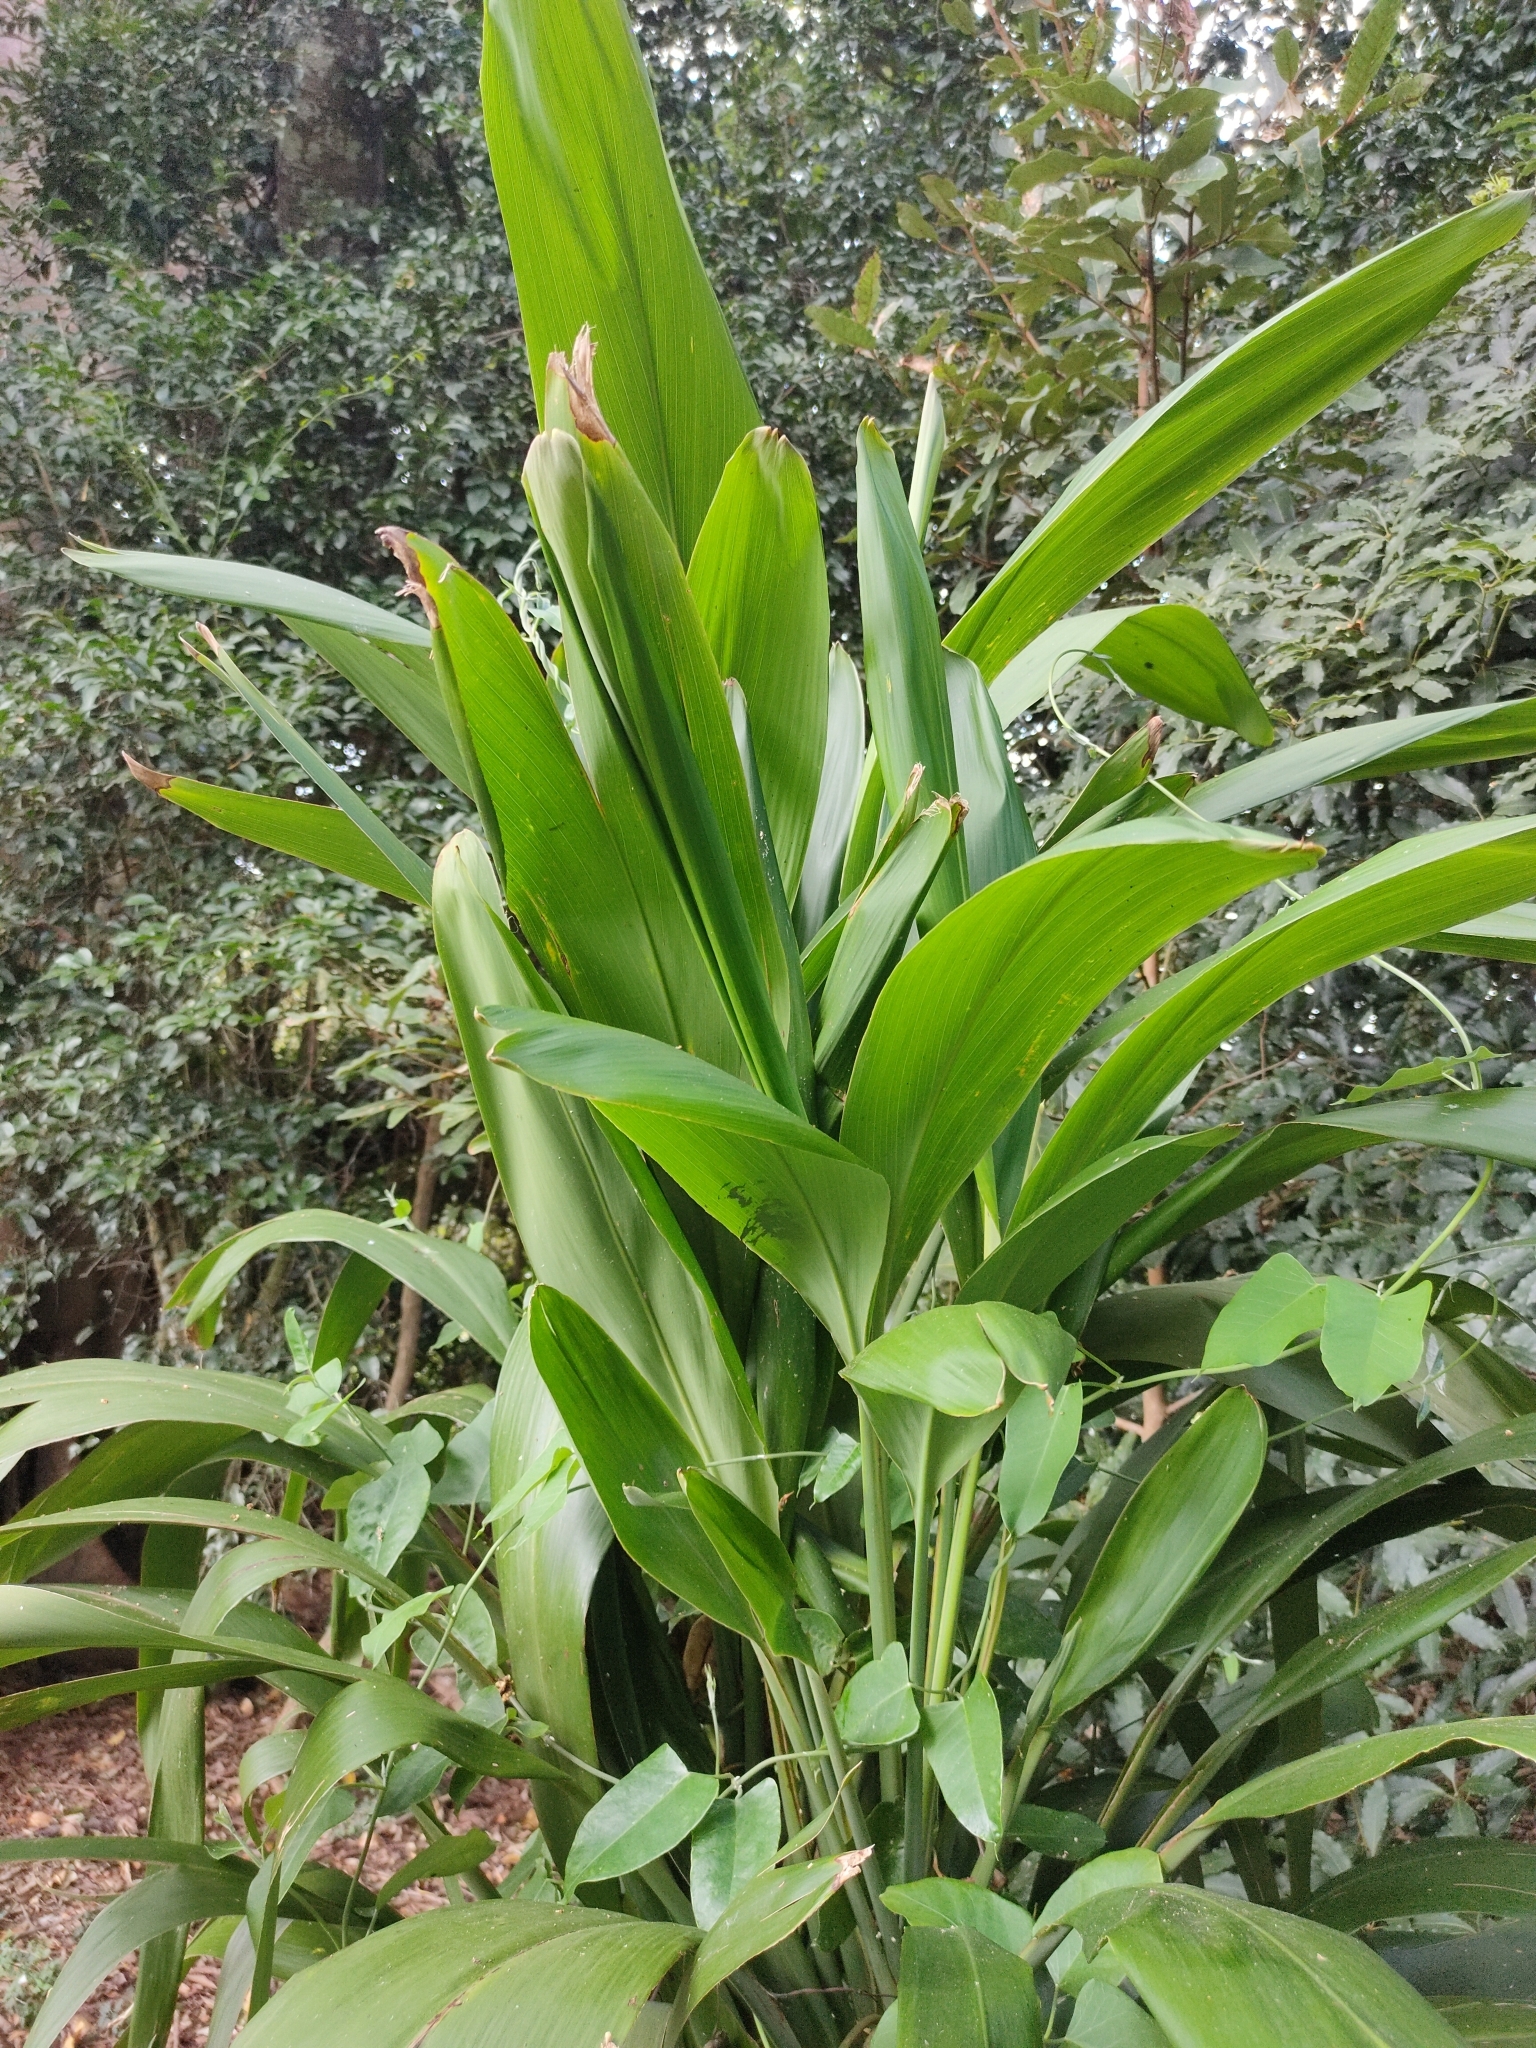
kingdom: Plantae
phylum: Tracheophyta
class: Liliopsida
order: Asparagales
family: Asparagaceae
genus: Cordyline
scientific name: Cordyline petiolaris
